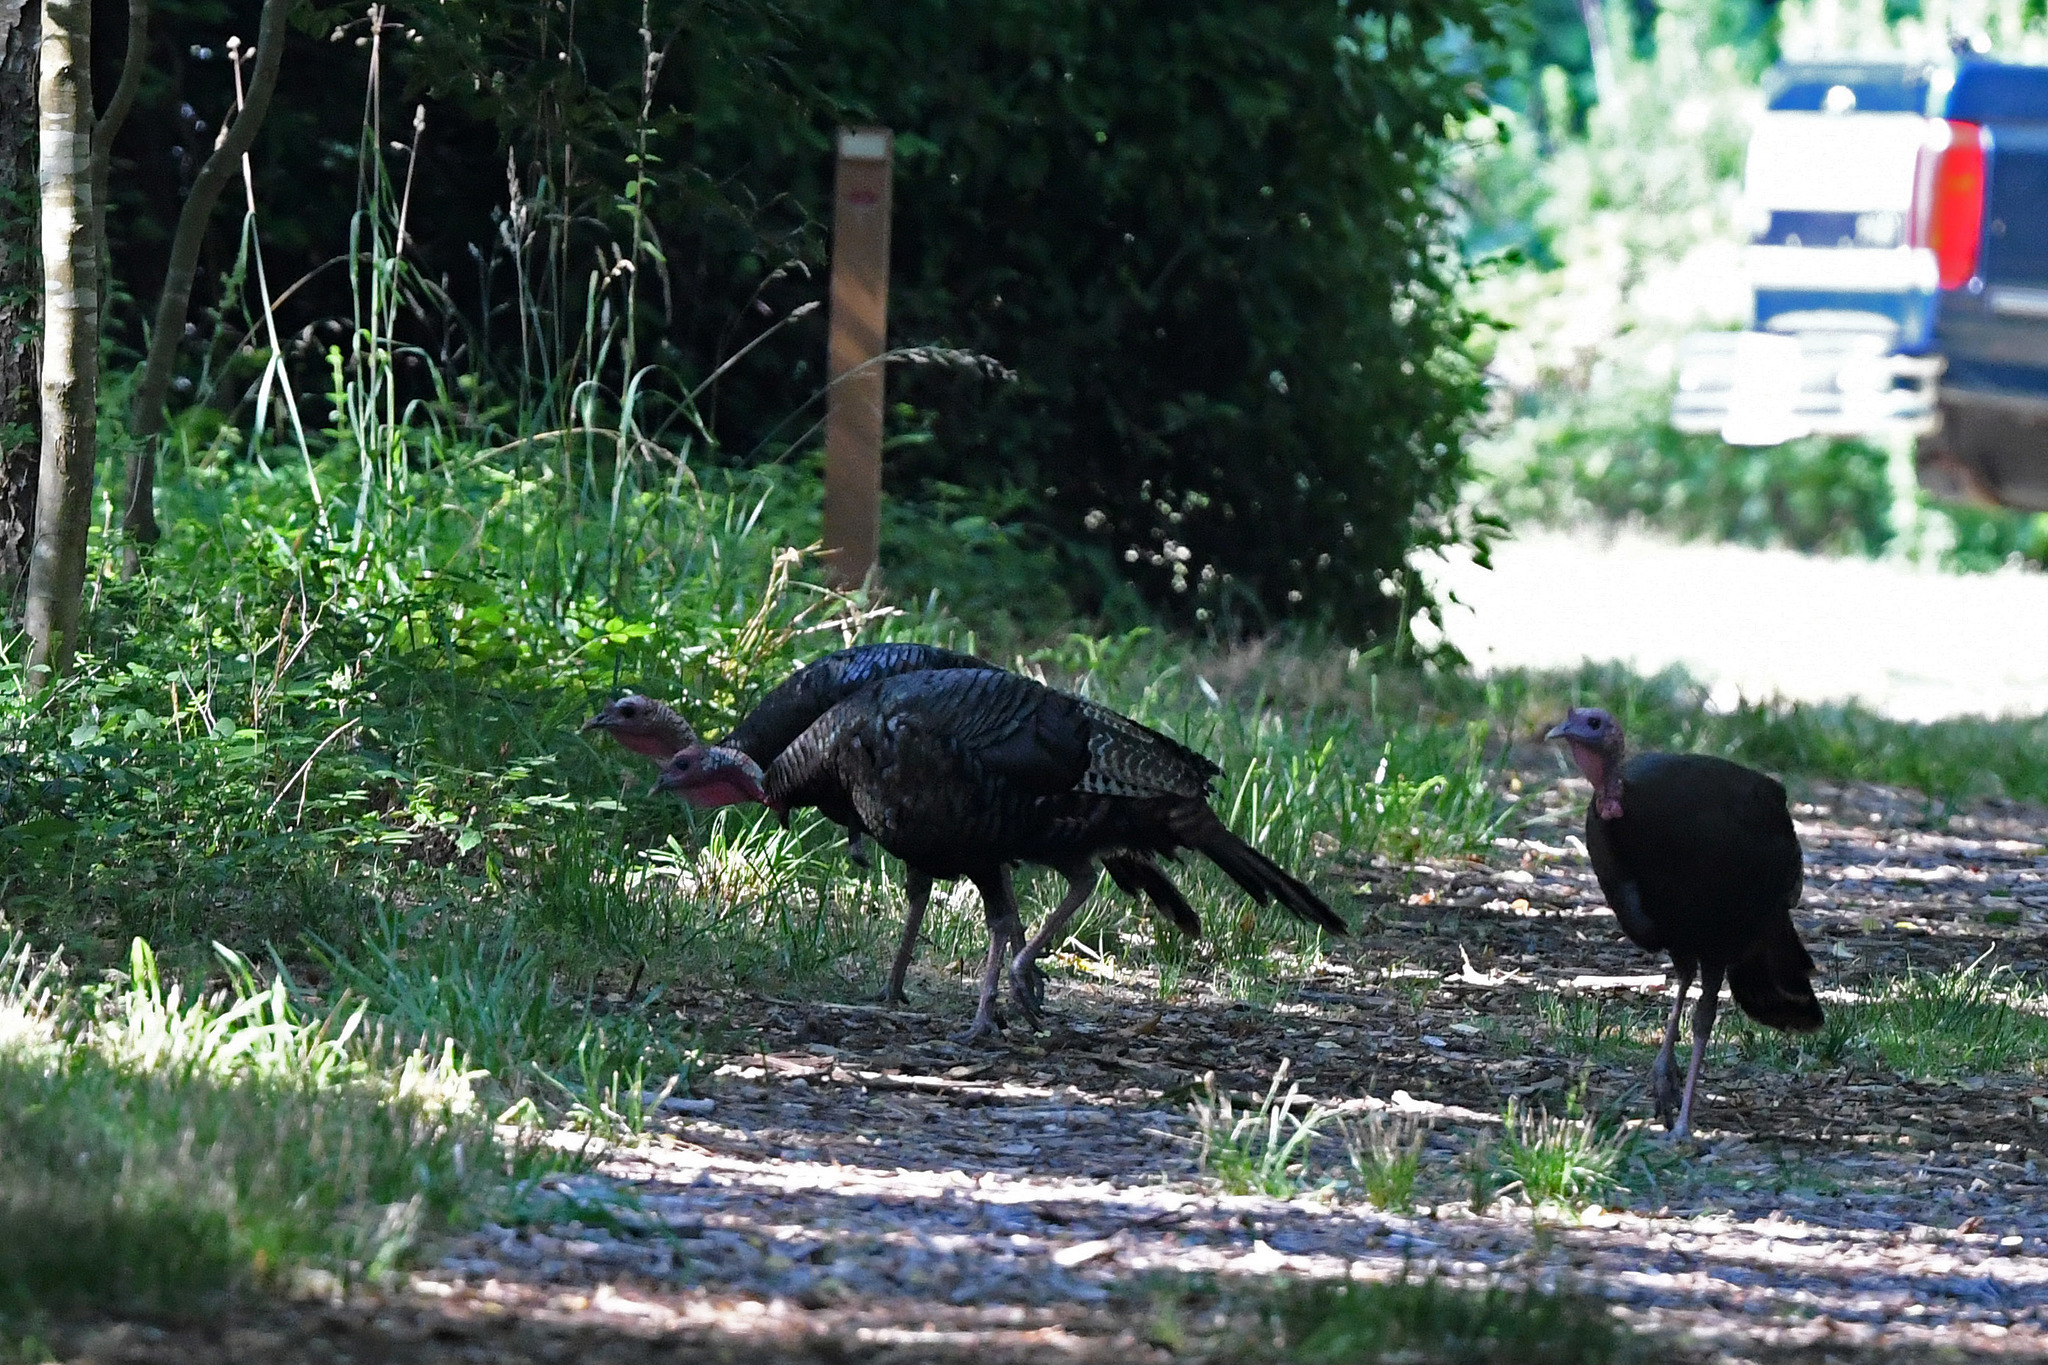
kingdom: Animalia
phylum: Chordata
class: Aves
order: Galliformes
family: Phasianidae
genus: Meleagris
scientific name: Meleagris gallopavo
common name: Wild turkey
